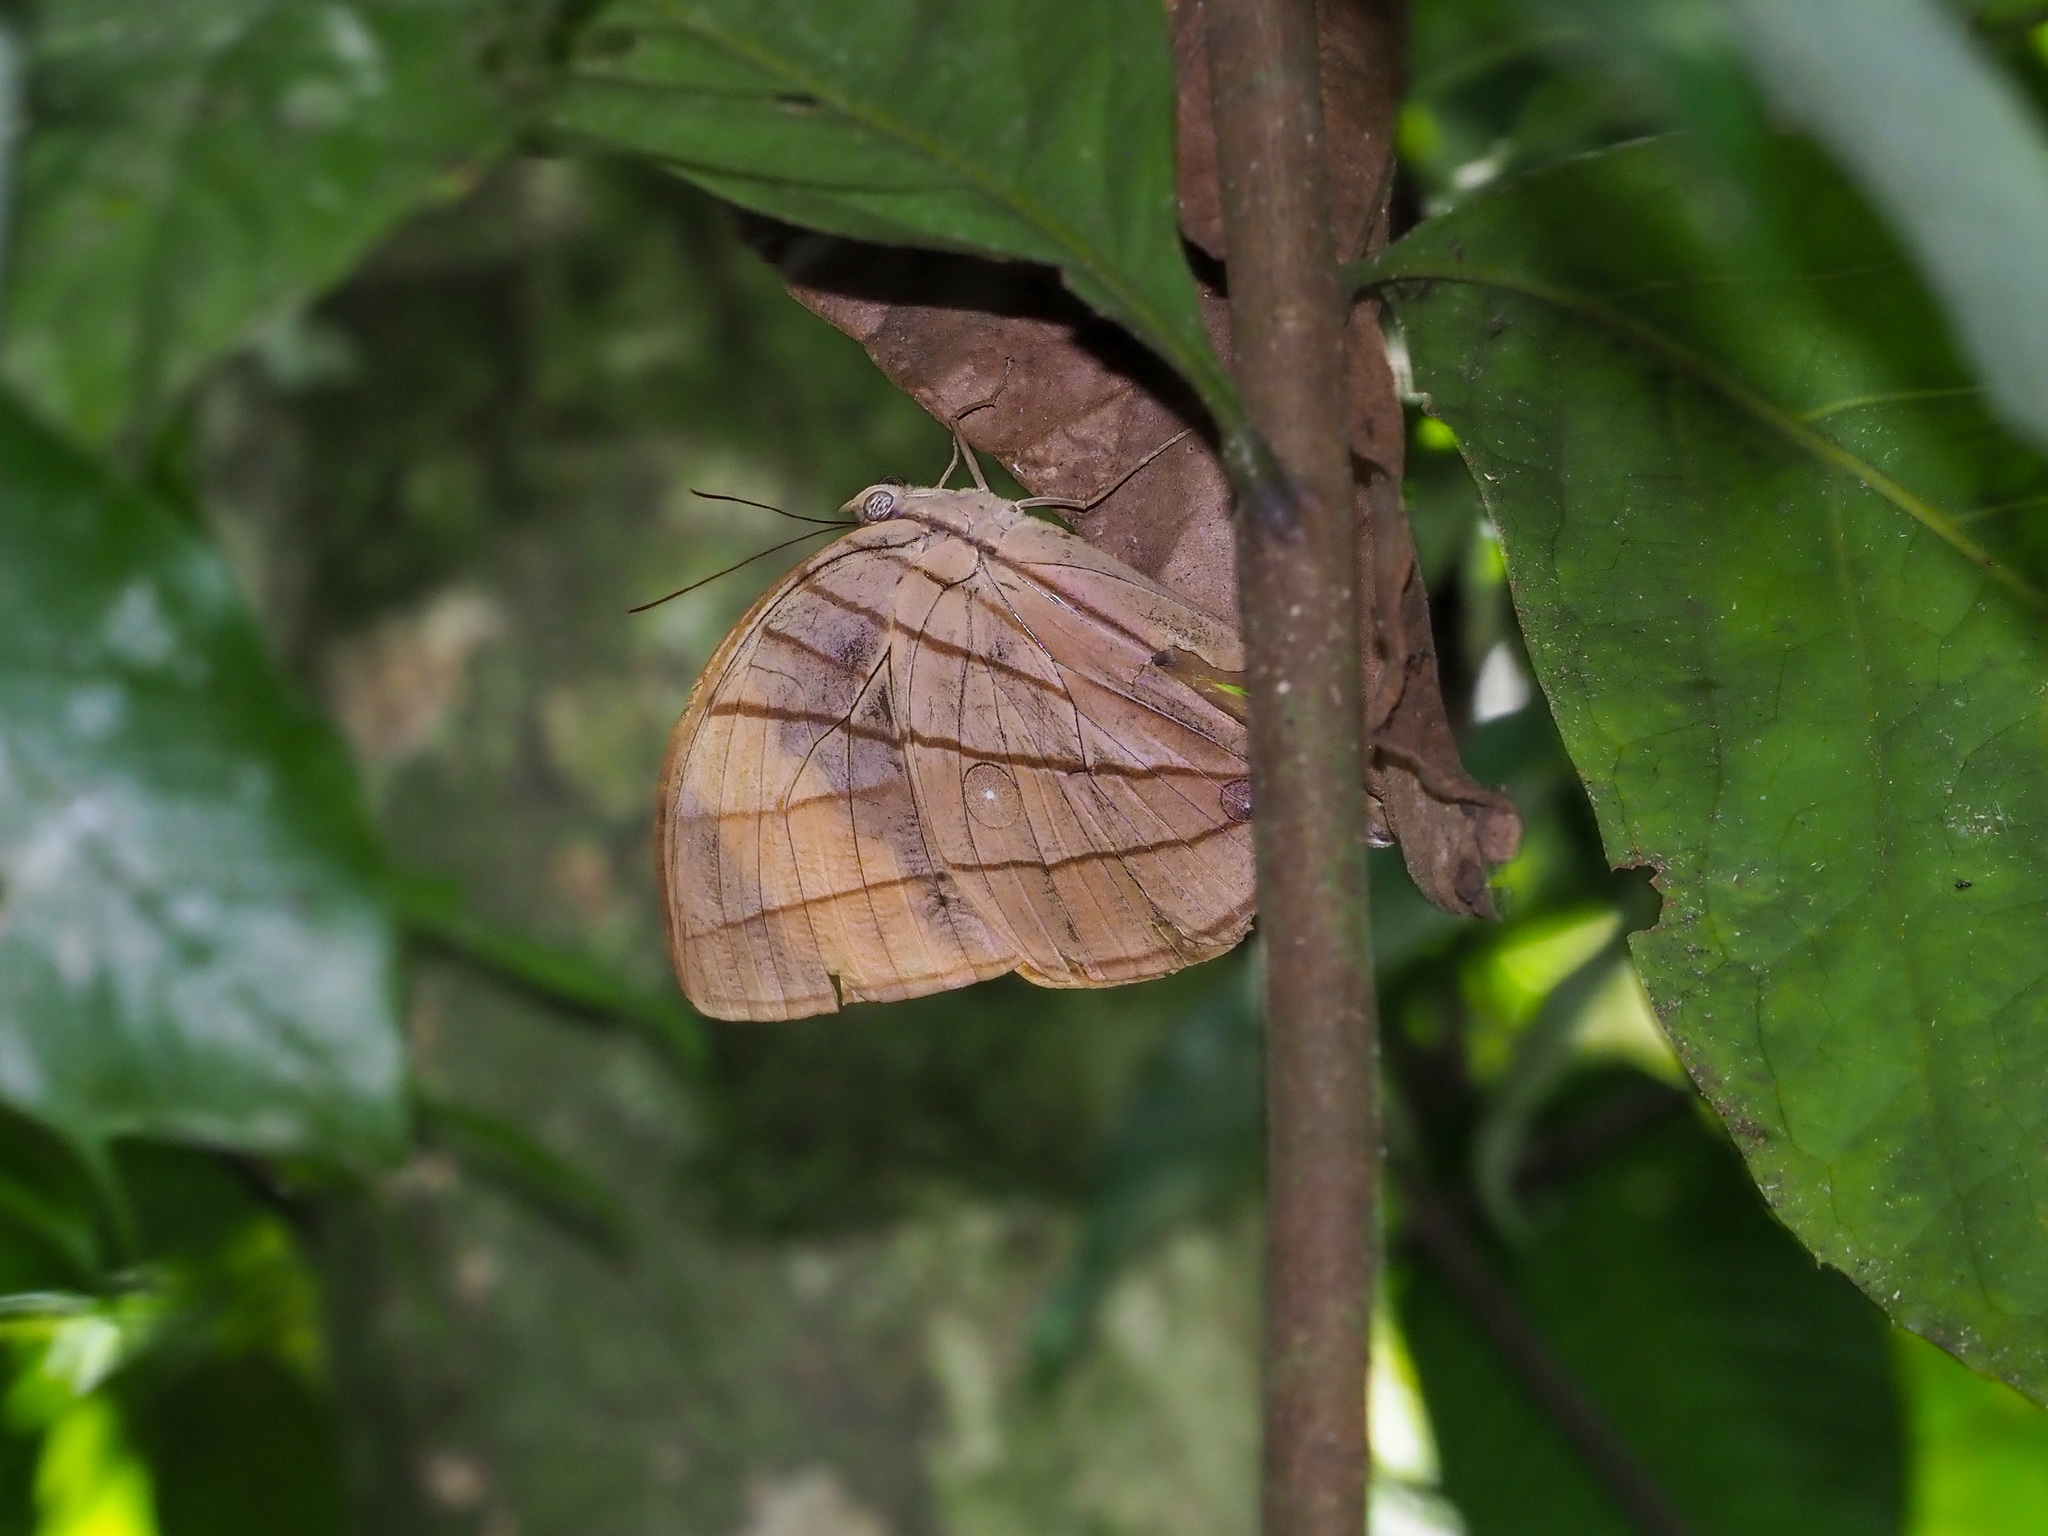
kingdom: Animalia
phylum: Arthropoda
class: Insecta
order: Lepidoptera
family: Nymphalidae
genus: Amathuxidia
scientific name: Amathuxidia amythaon
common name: Koh-i-noor
